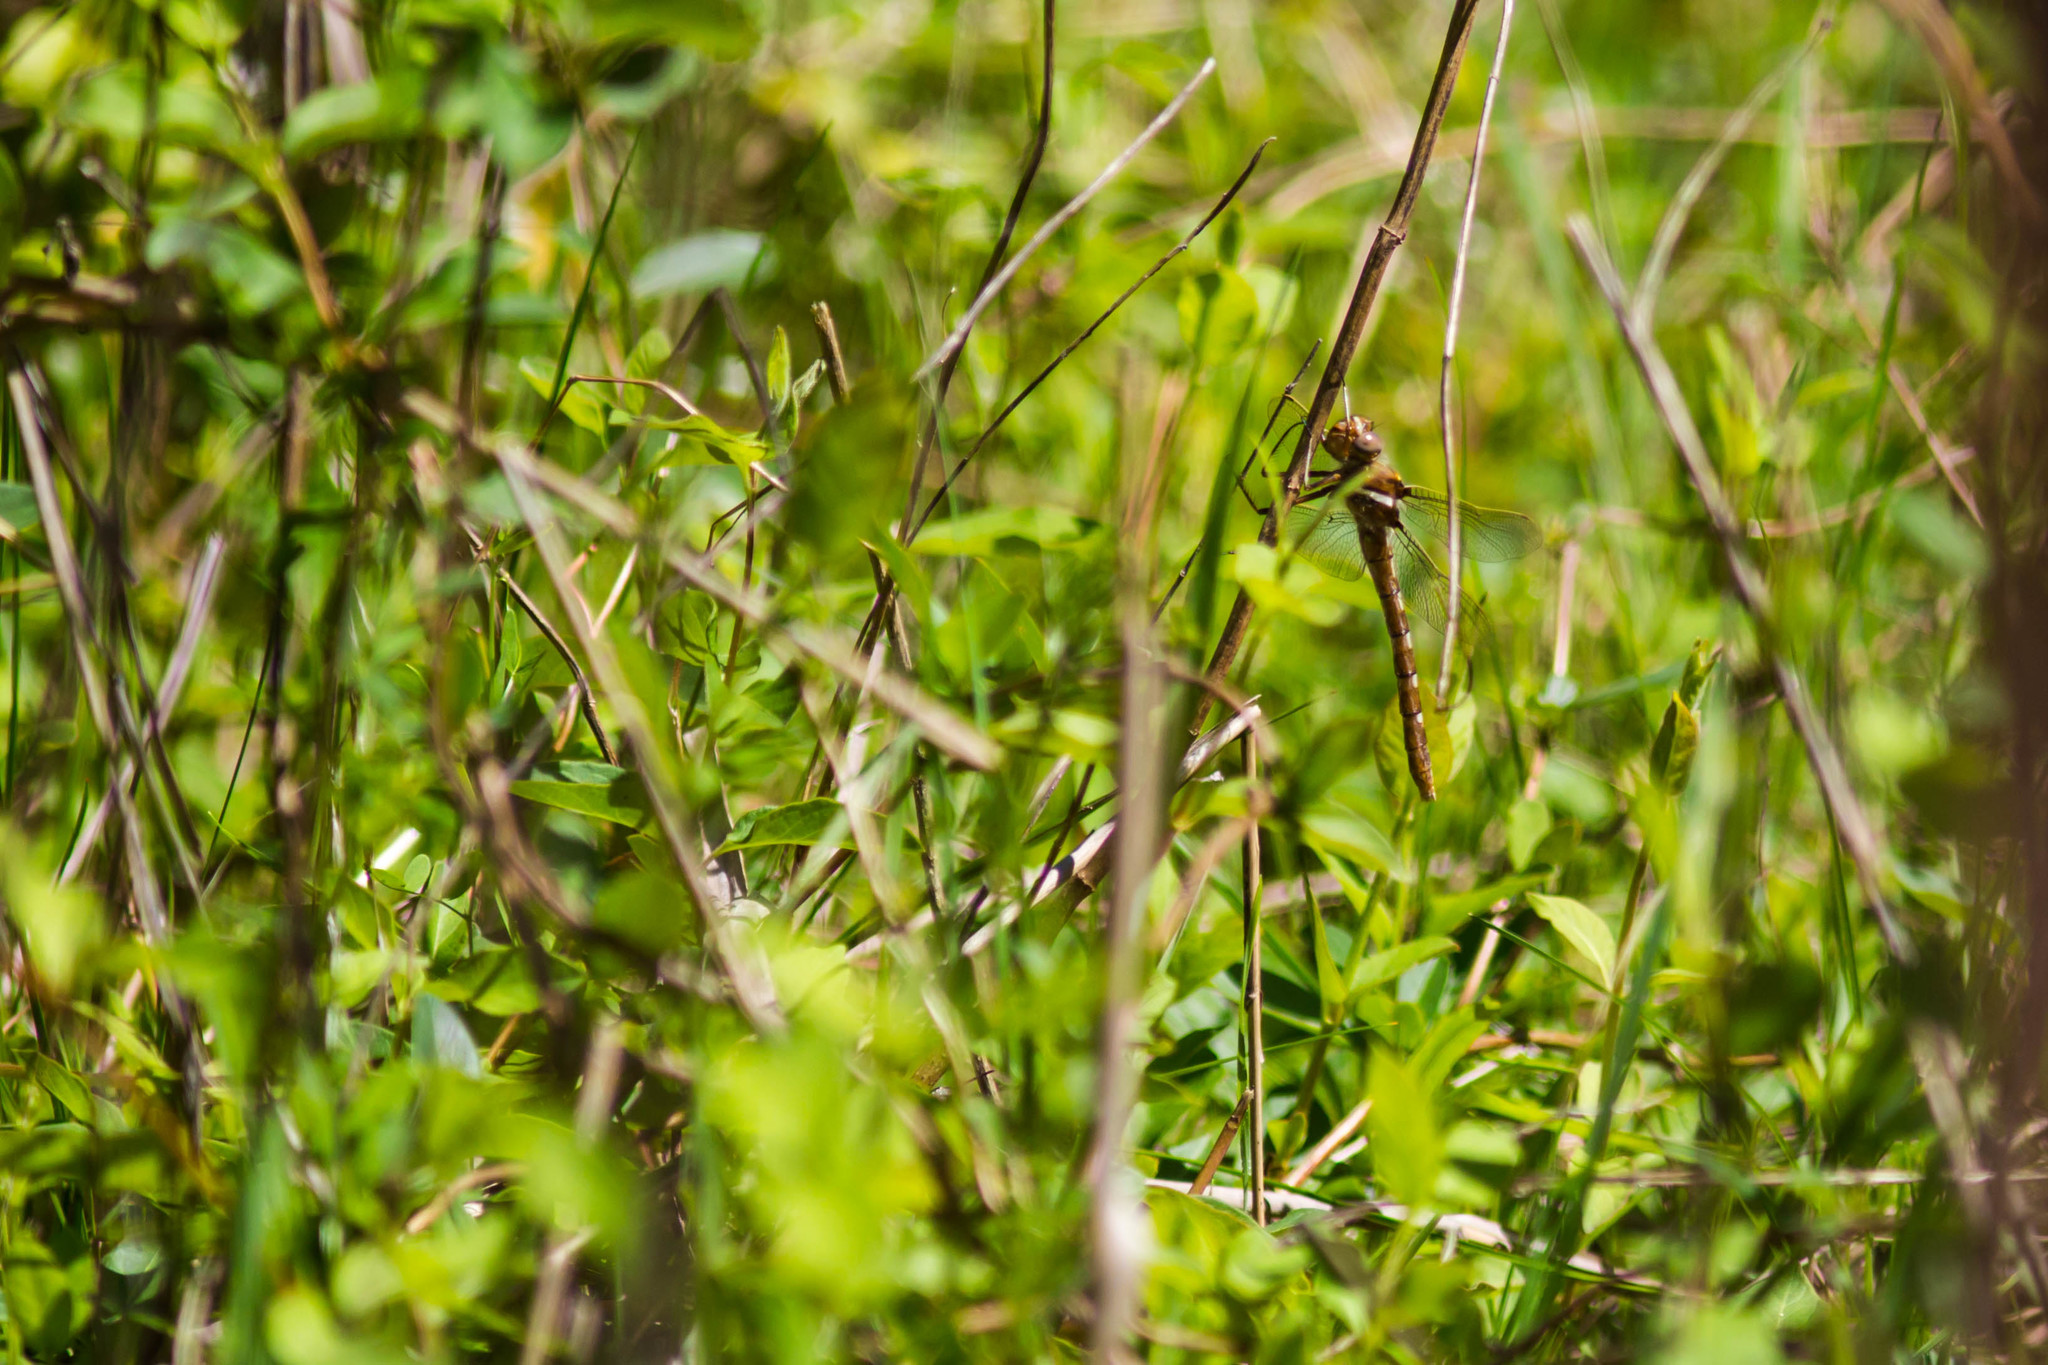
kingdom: Animalia
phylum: Arthropoda
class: Insecta
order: Odonata
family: Macromiidae
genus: Didymops
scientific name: Didymops transversa
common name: Stream cruiser
